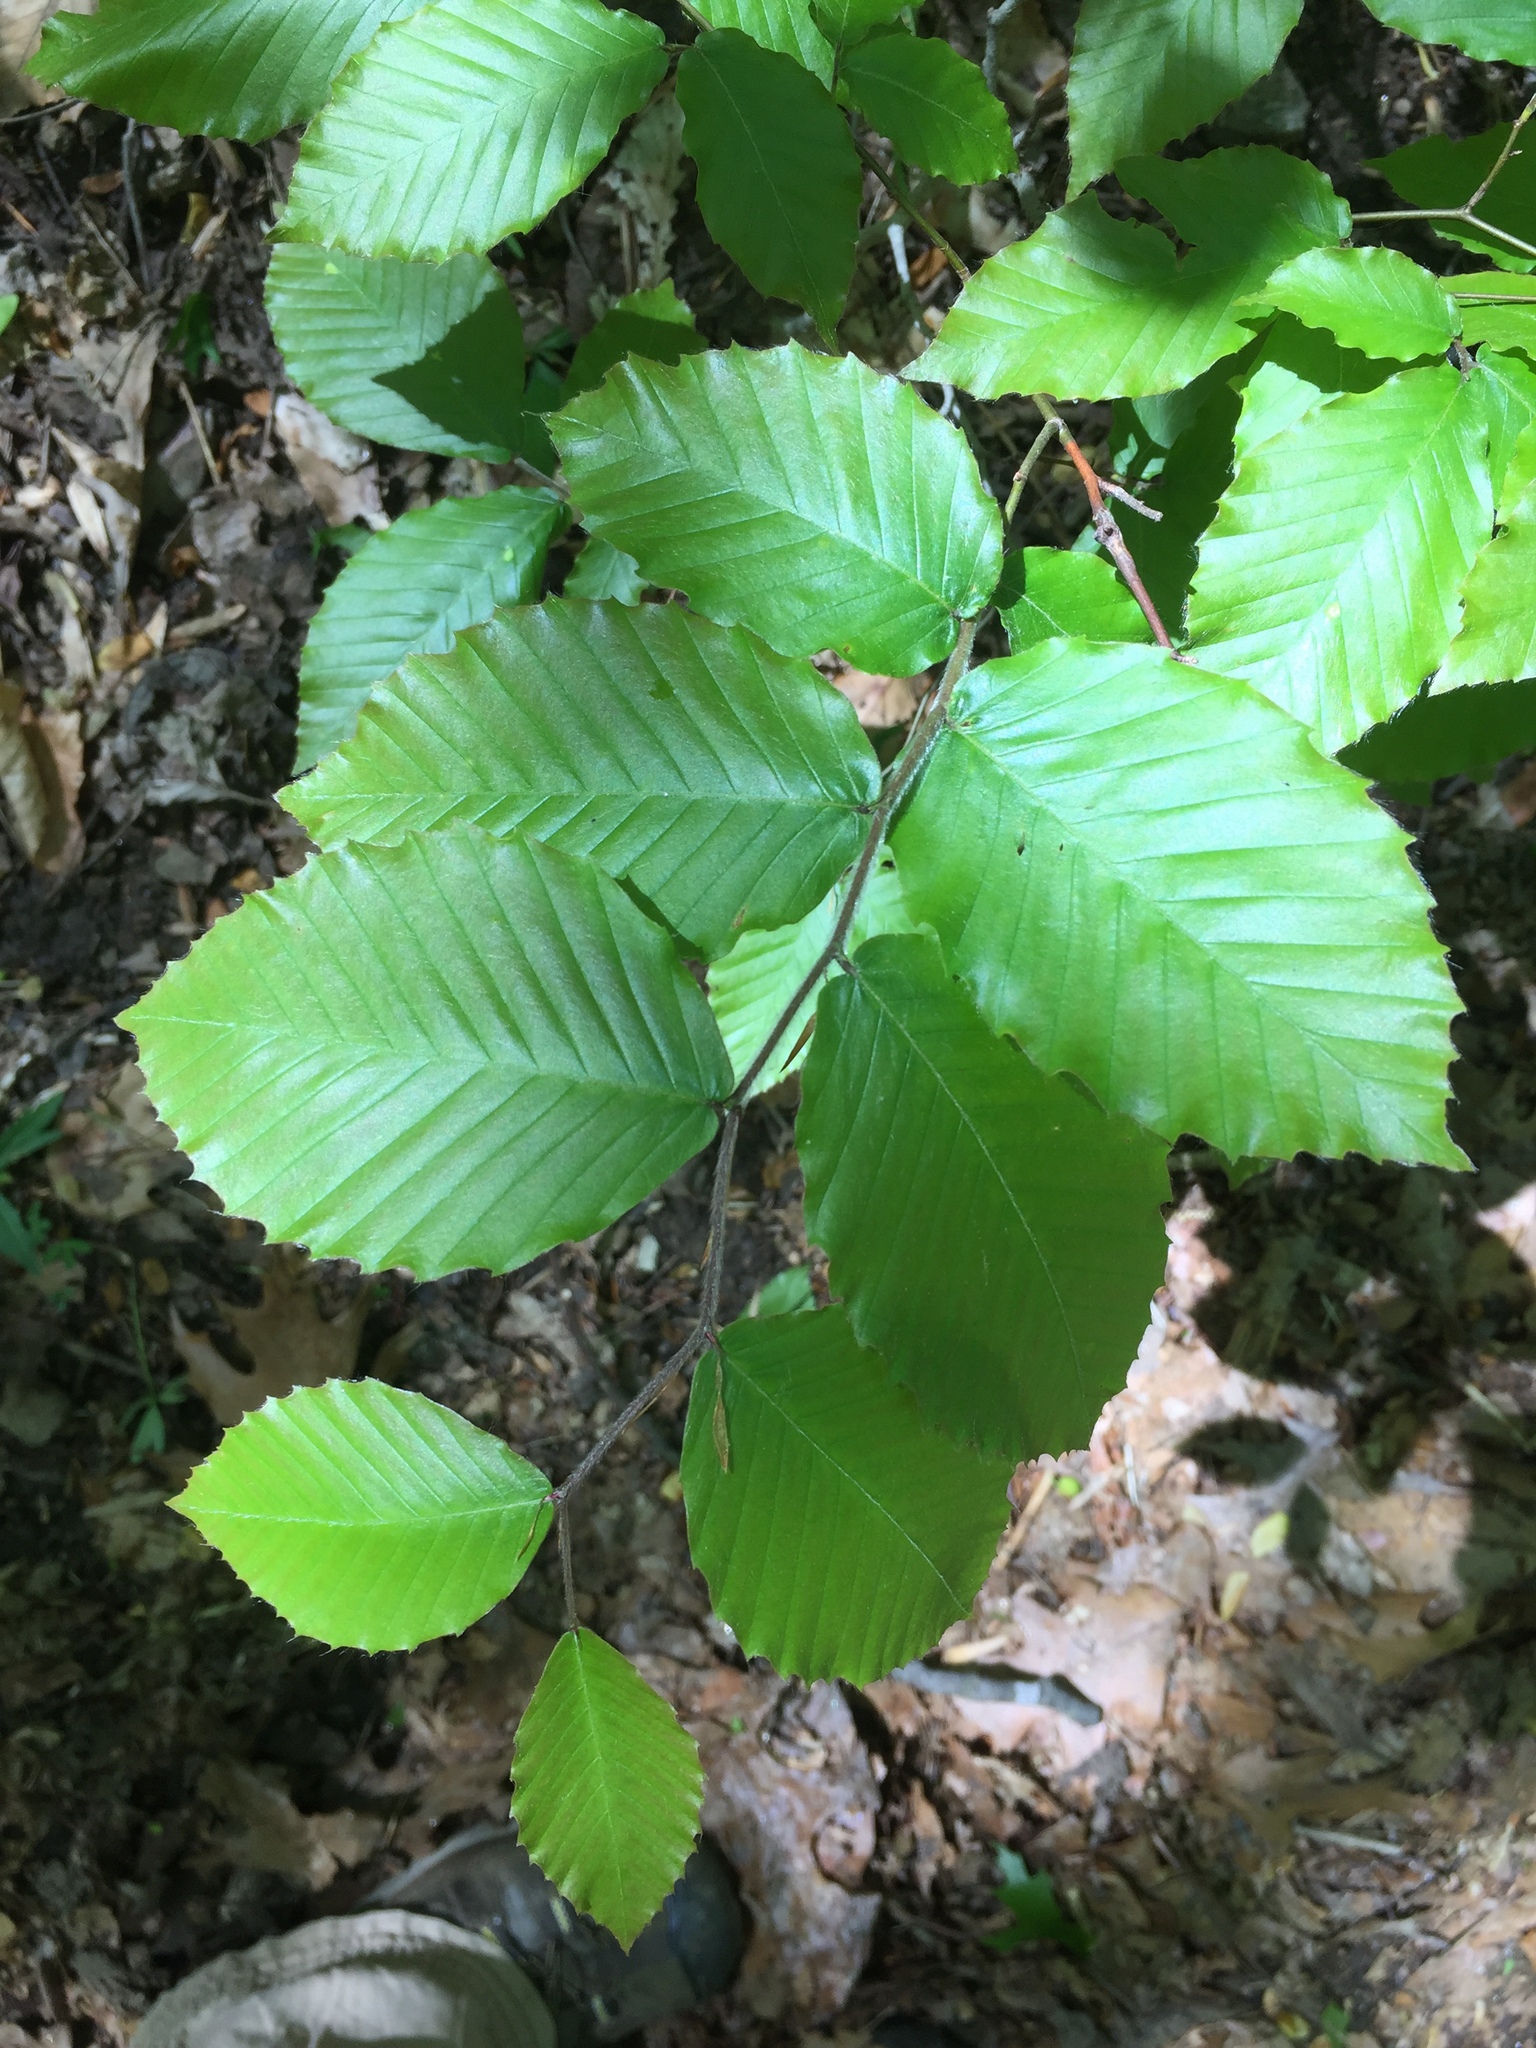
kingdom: Plantae
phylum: Tracheophyta
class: Magnoliopsida
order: Fagales
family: Fagaceae
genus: Fagus
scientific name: Fagus grandifolia
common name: American beech
